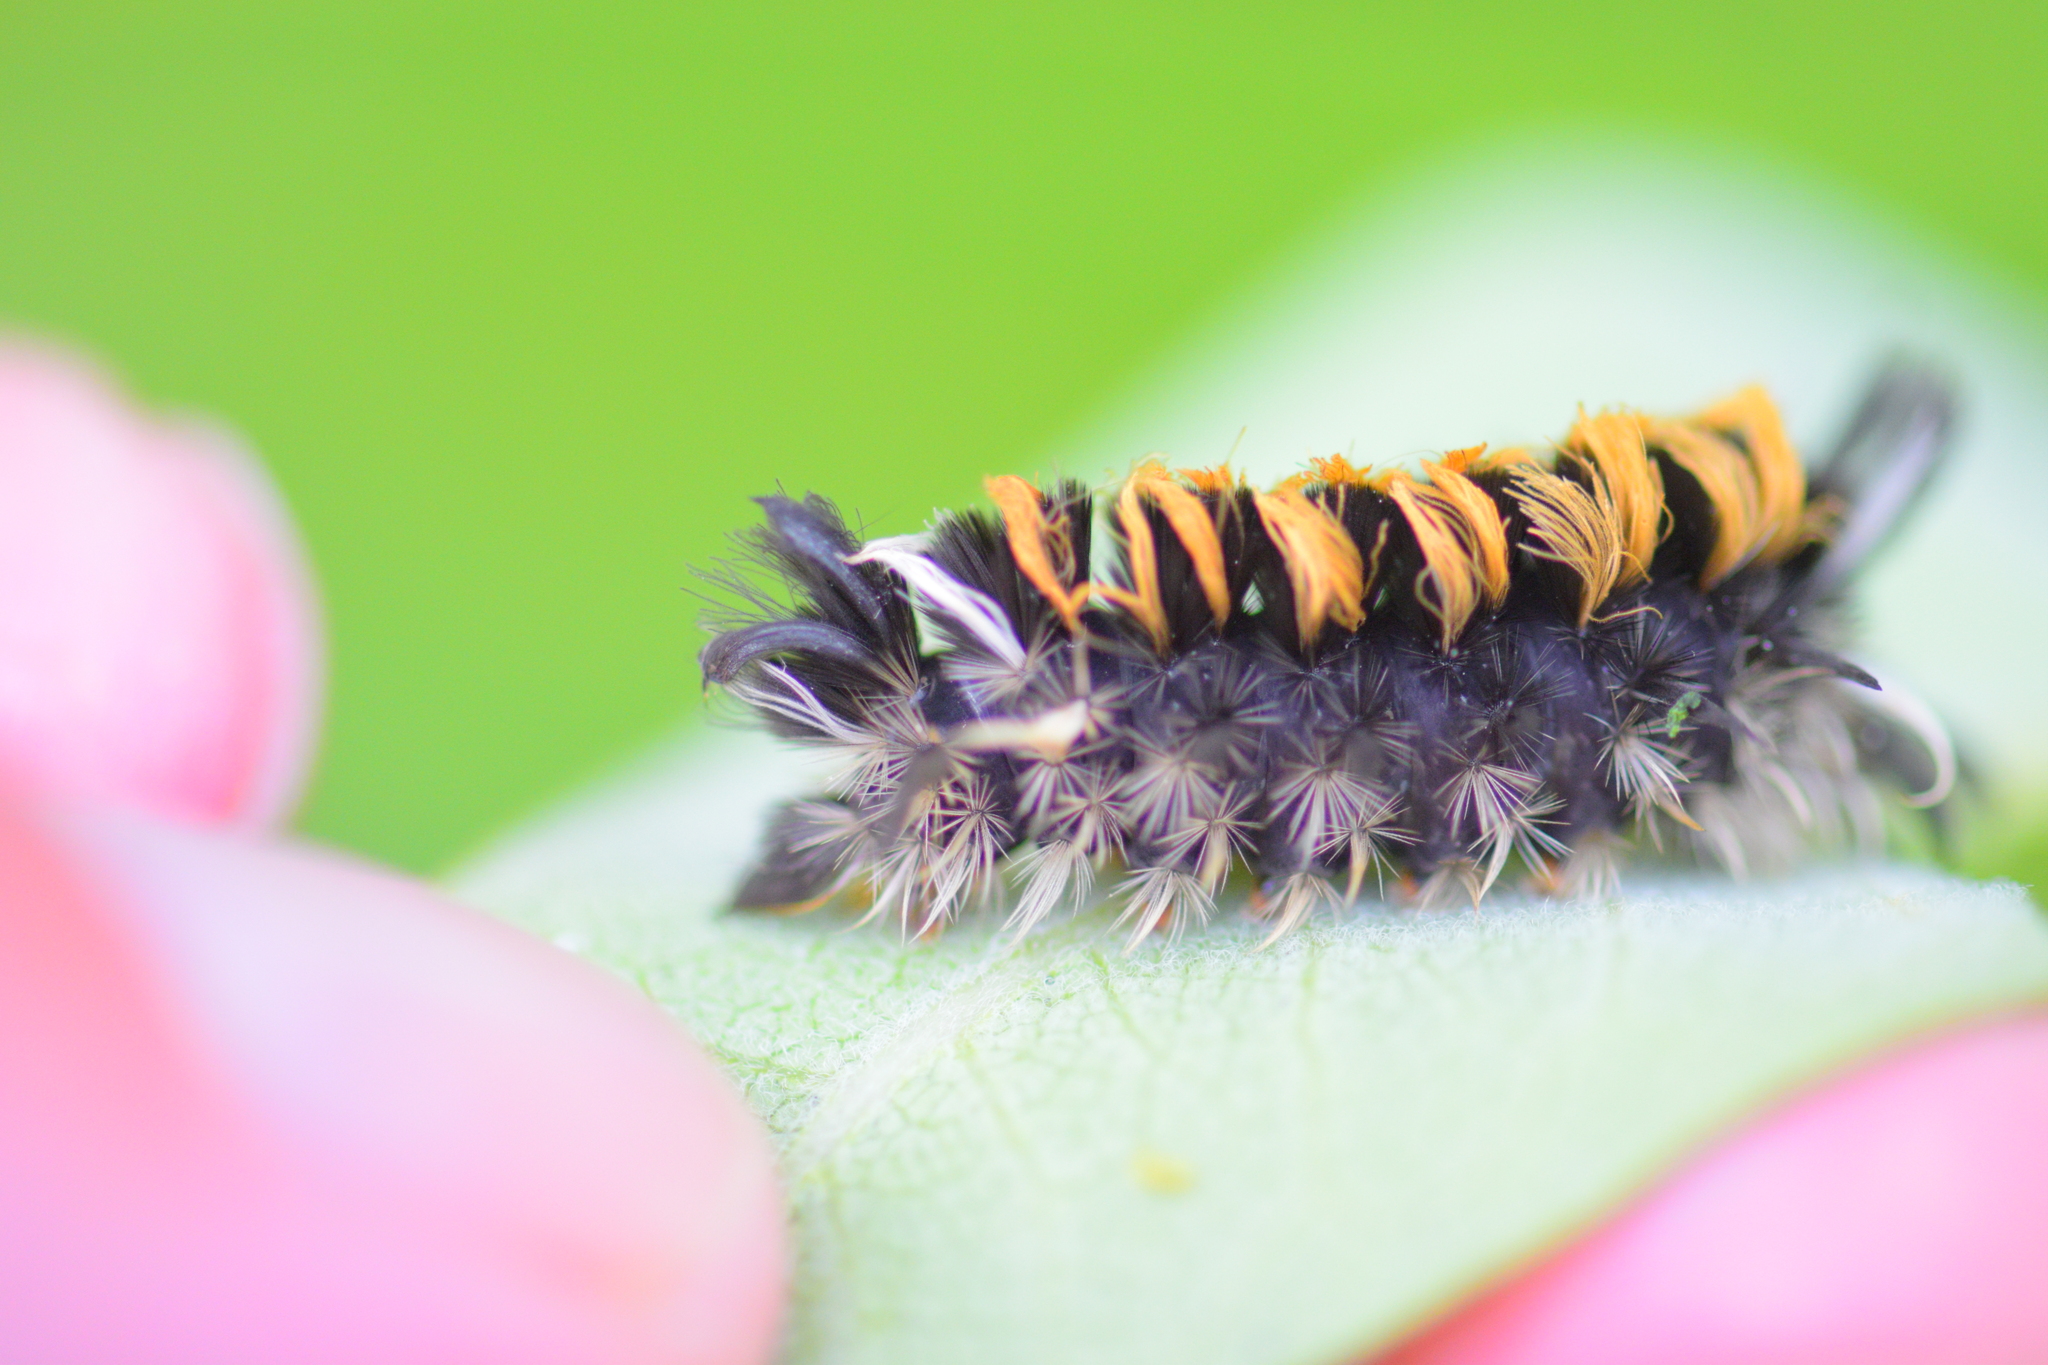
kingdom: Animalia
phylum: Arthropoda
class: Insecta
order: Lepidoptera
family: Erebidae
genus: Euchaetes
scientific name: Euchaetes egle
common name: Milkweed tussock moth
